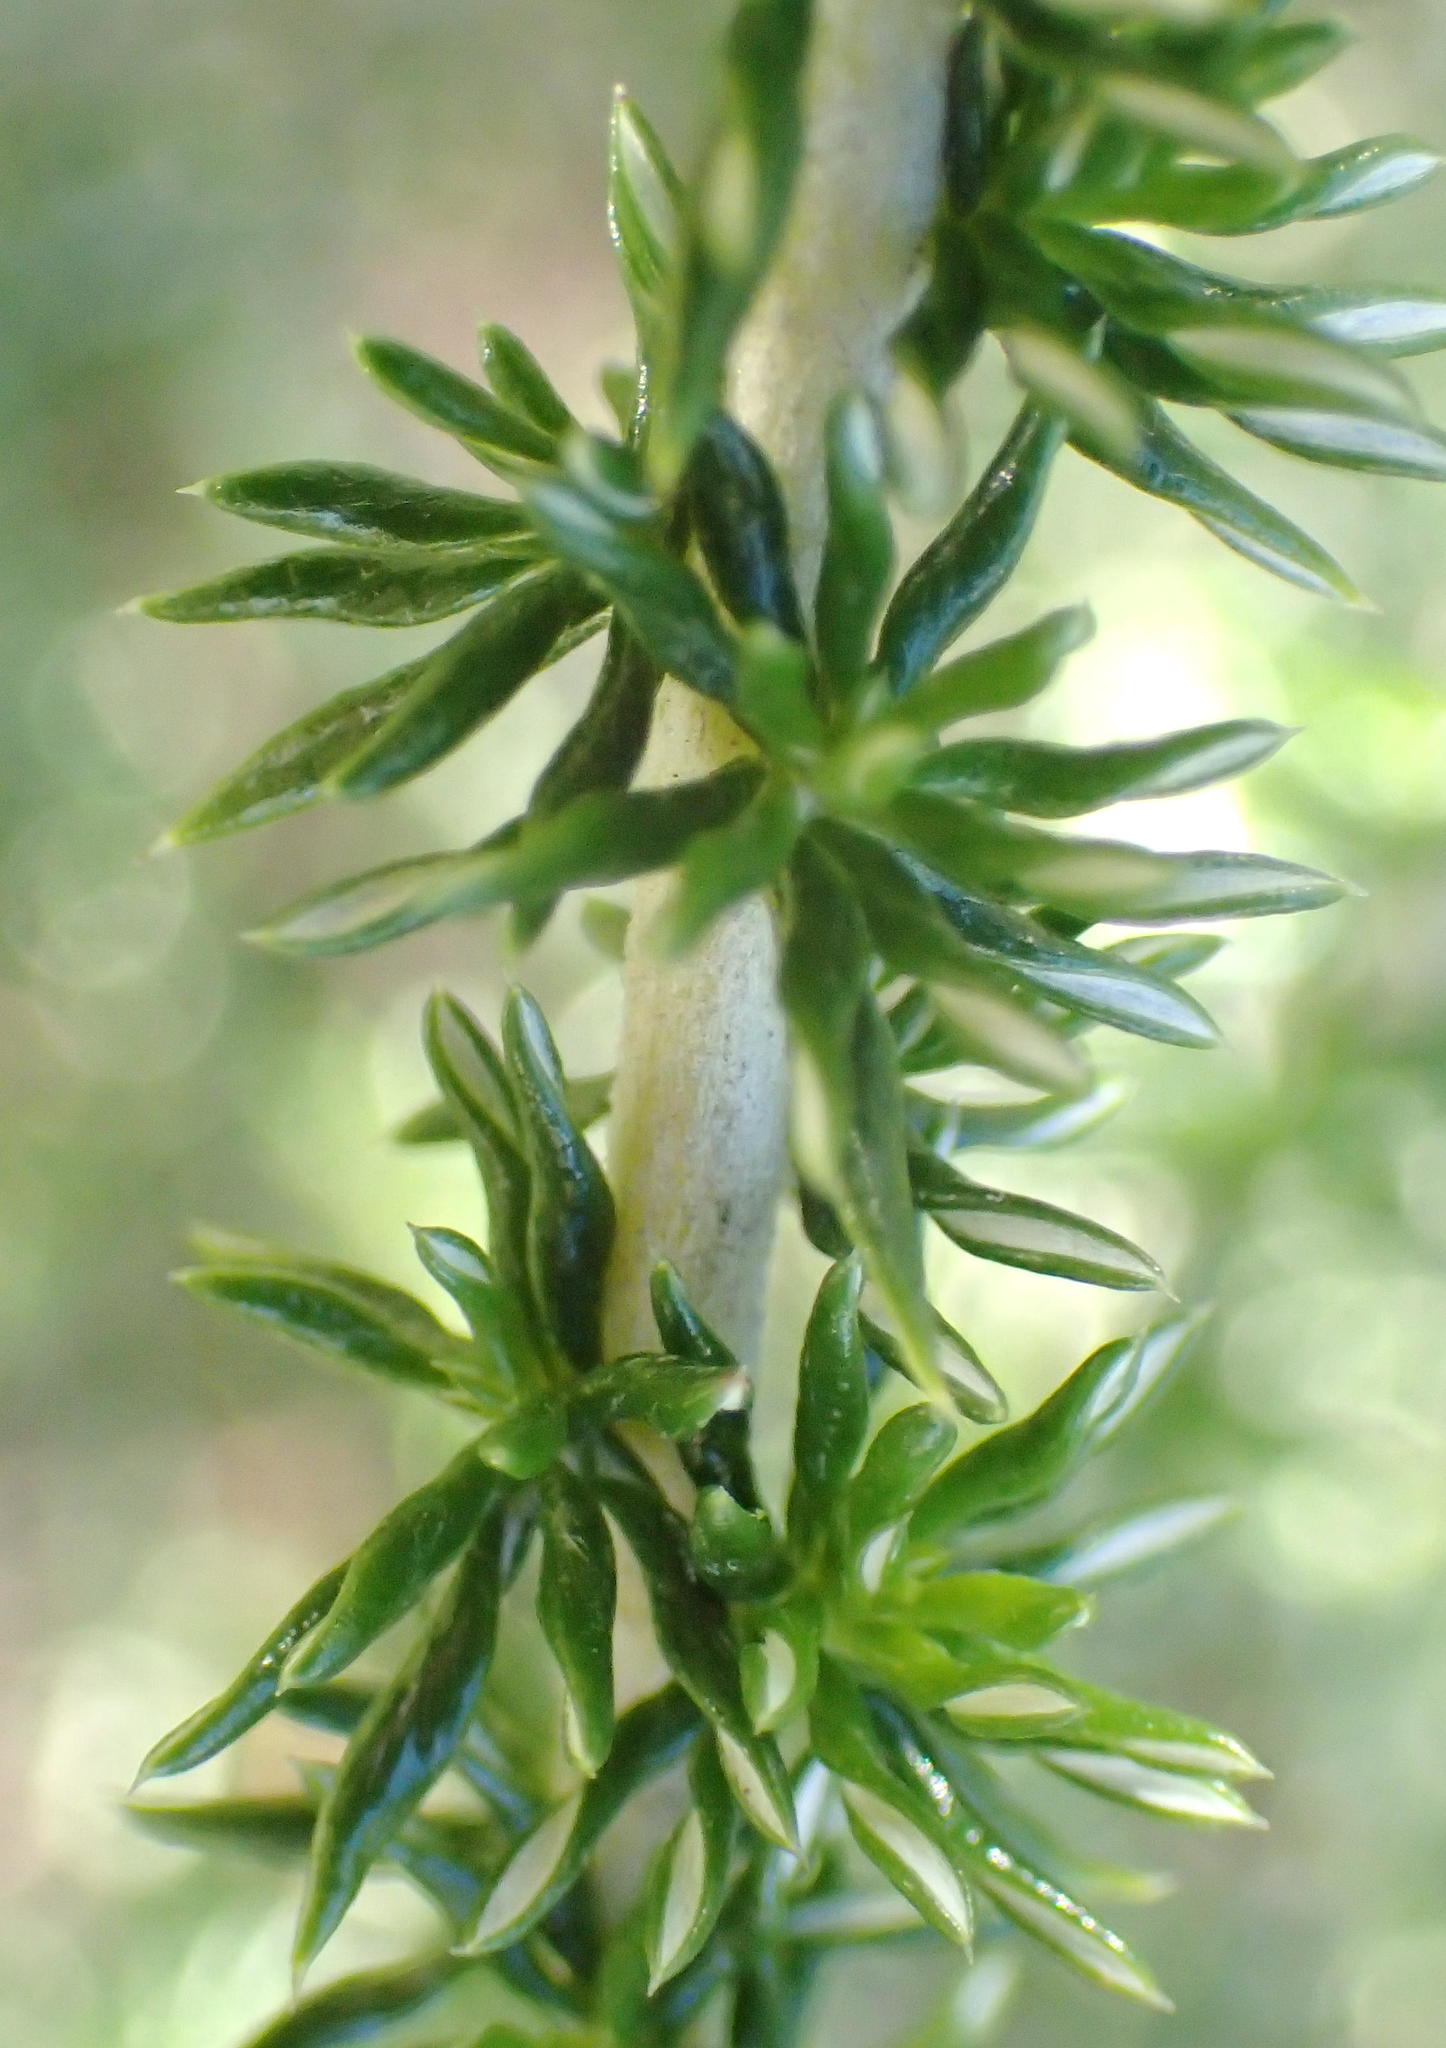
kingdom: Plantae
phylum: Tracheophyta
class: Magnoliopsida
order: Asterales
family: Asteraceae
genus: Metalasia
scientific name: Metalasia muricata
